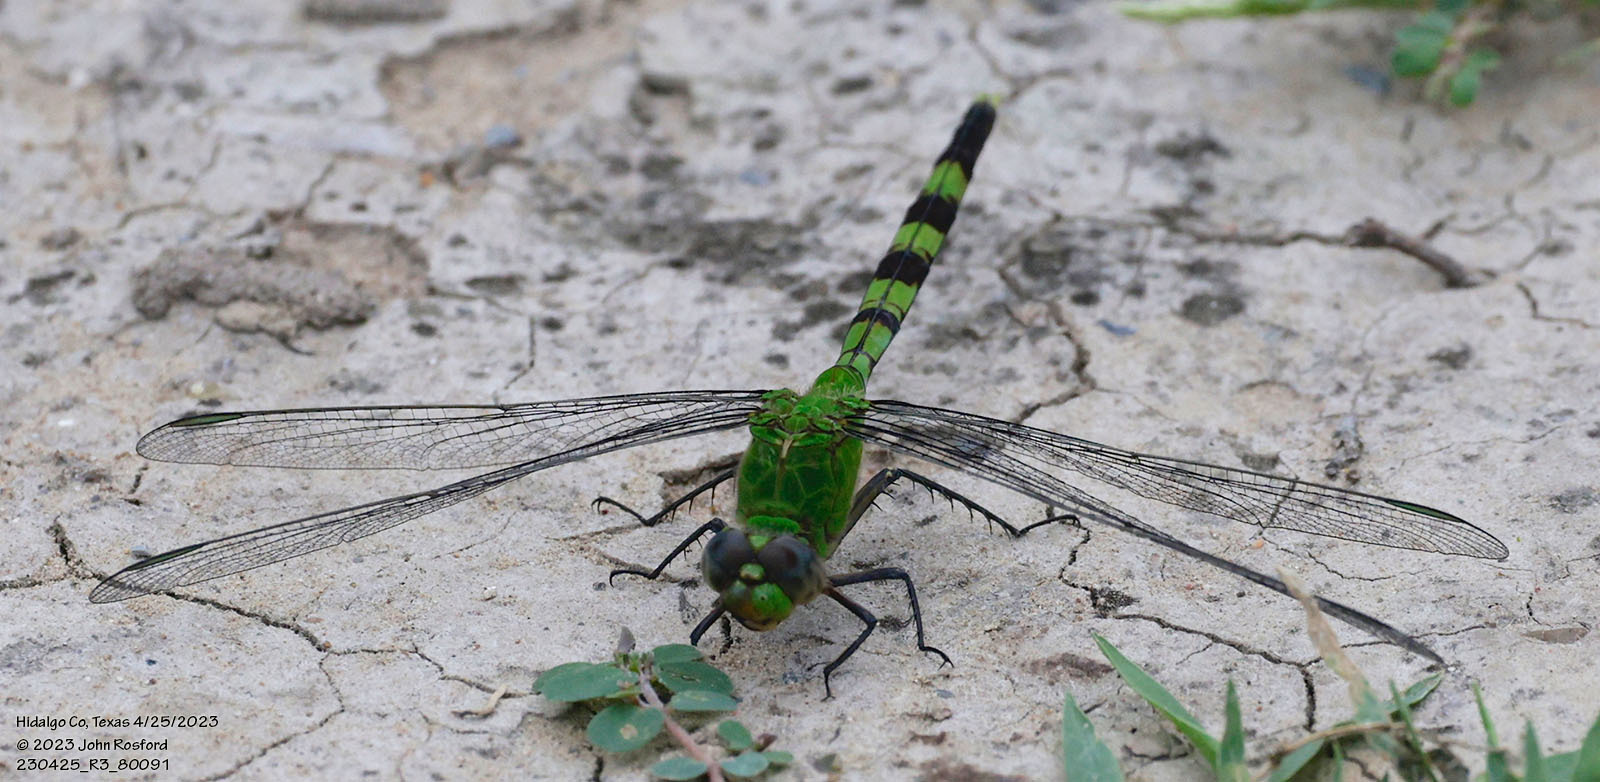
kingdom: Animalia
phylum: Arthropoda
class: Insecta
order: Odonata
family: Libellulidae
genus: Erythemis
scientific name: Erythemis vesiculosa
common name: Great pondhawk
